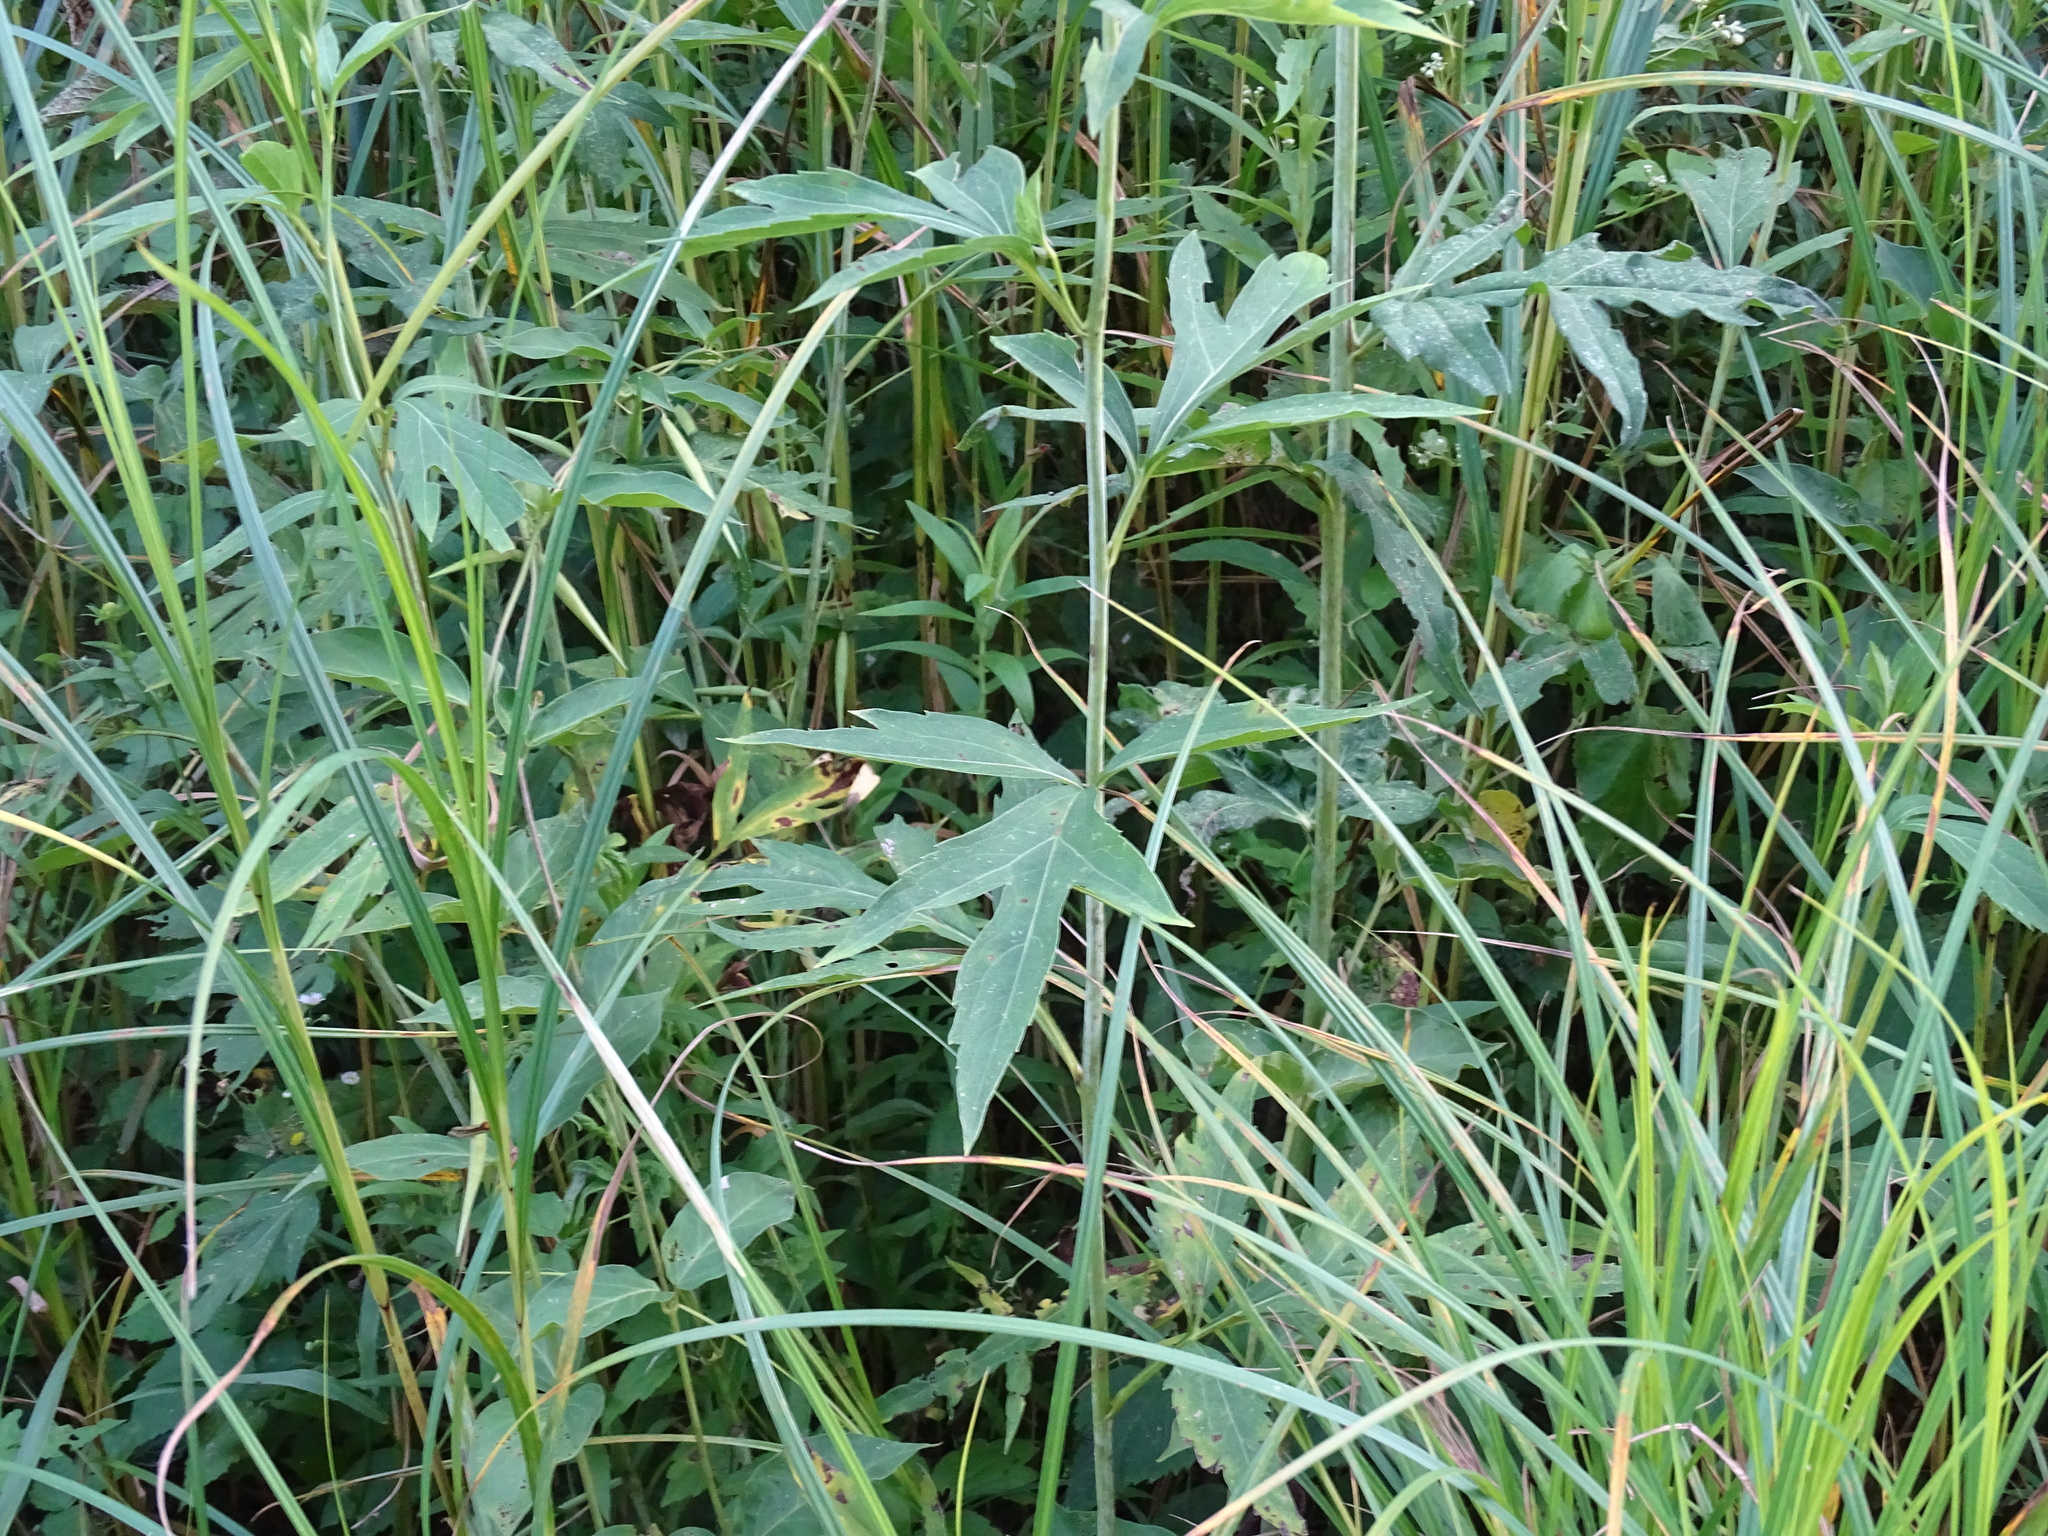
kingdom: Plantae
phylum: Tracheophyta
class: Magnoliopsida
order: Asterales
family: Asteraceae
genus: Rudbeckia
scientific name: Rudbeckia laciniata
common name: Coneflower
